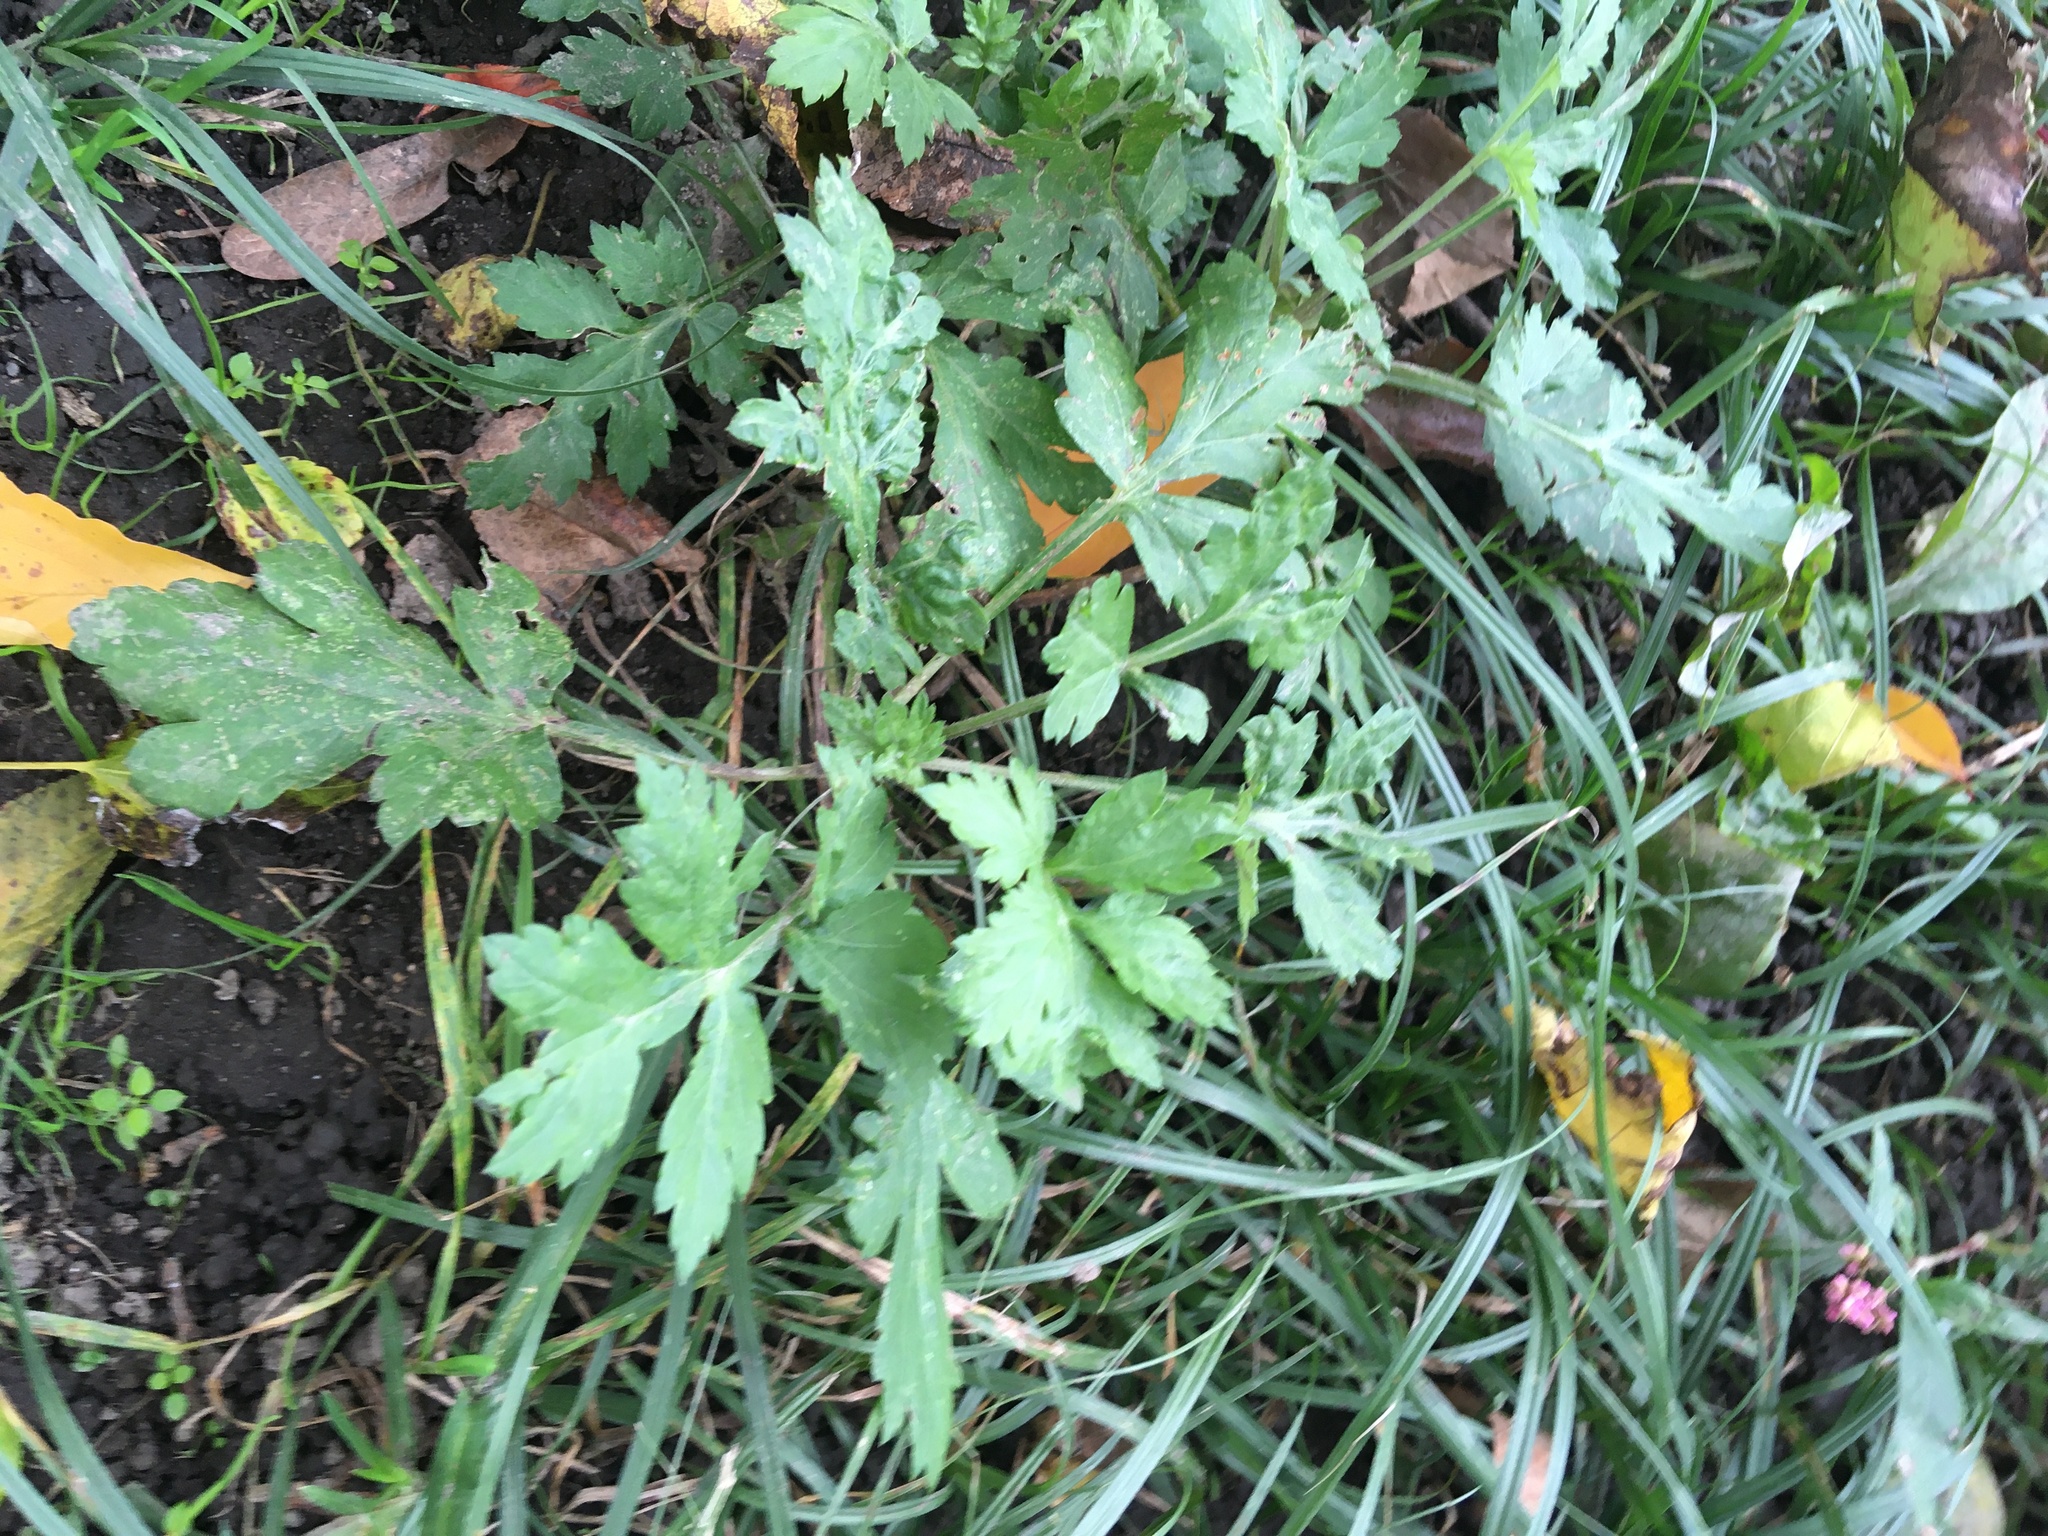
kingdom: Plantae
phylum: Tracheophyta
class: Magnoliopsida
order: Asterales
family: Asteraceae
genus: Artemisia
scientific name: Artemisia vulgaris
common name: Mugwort
